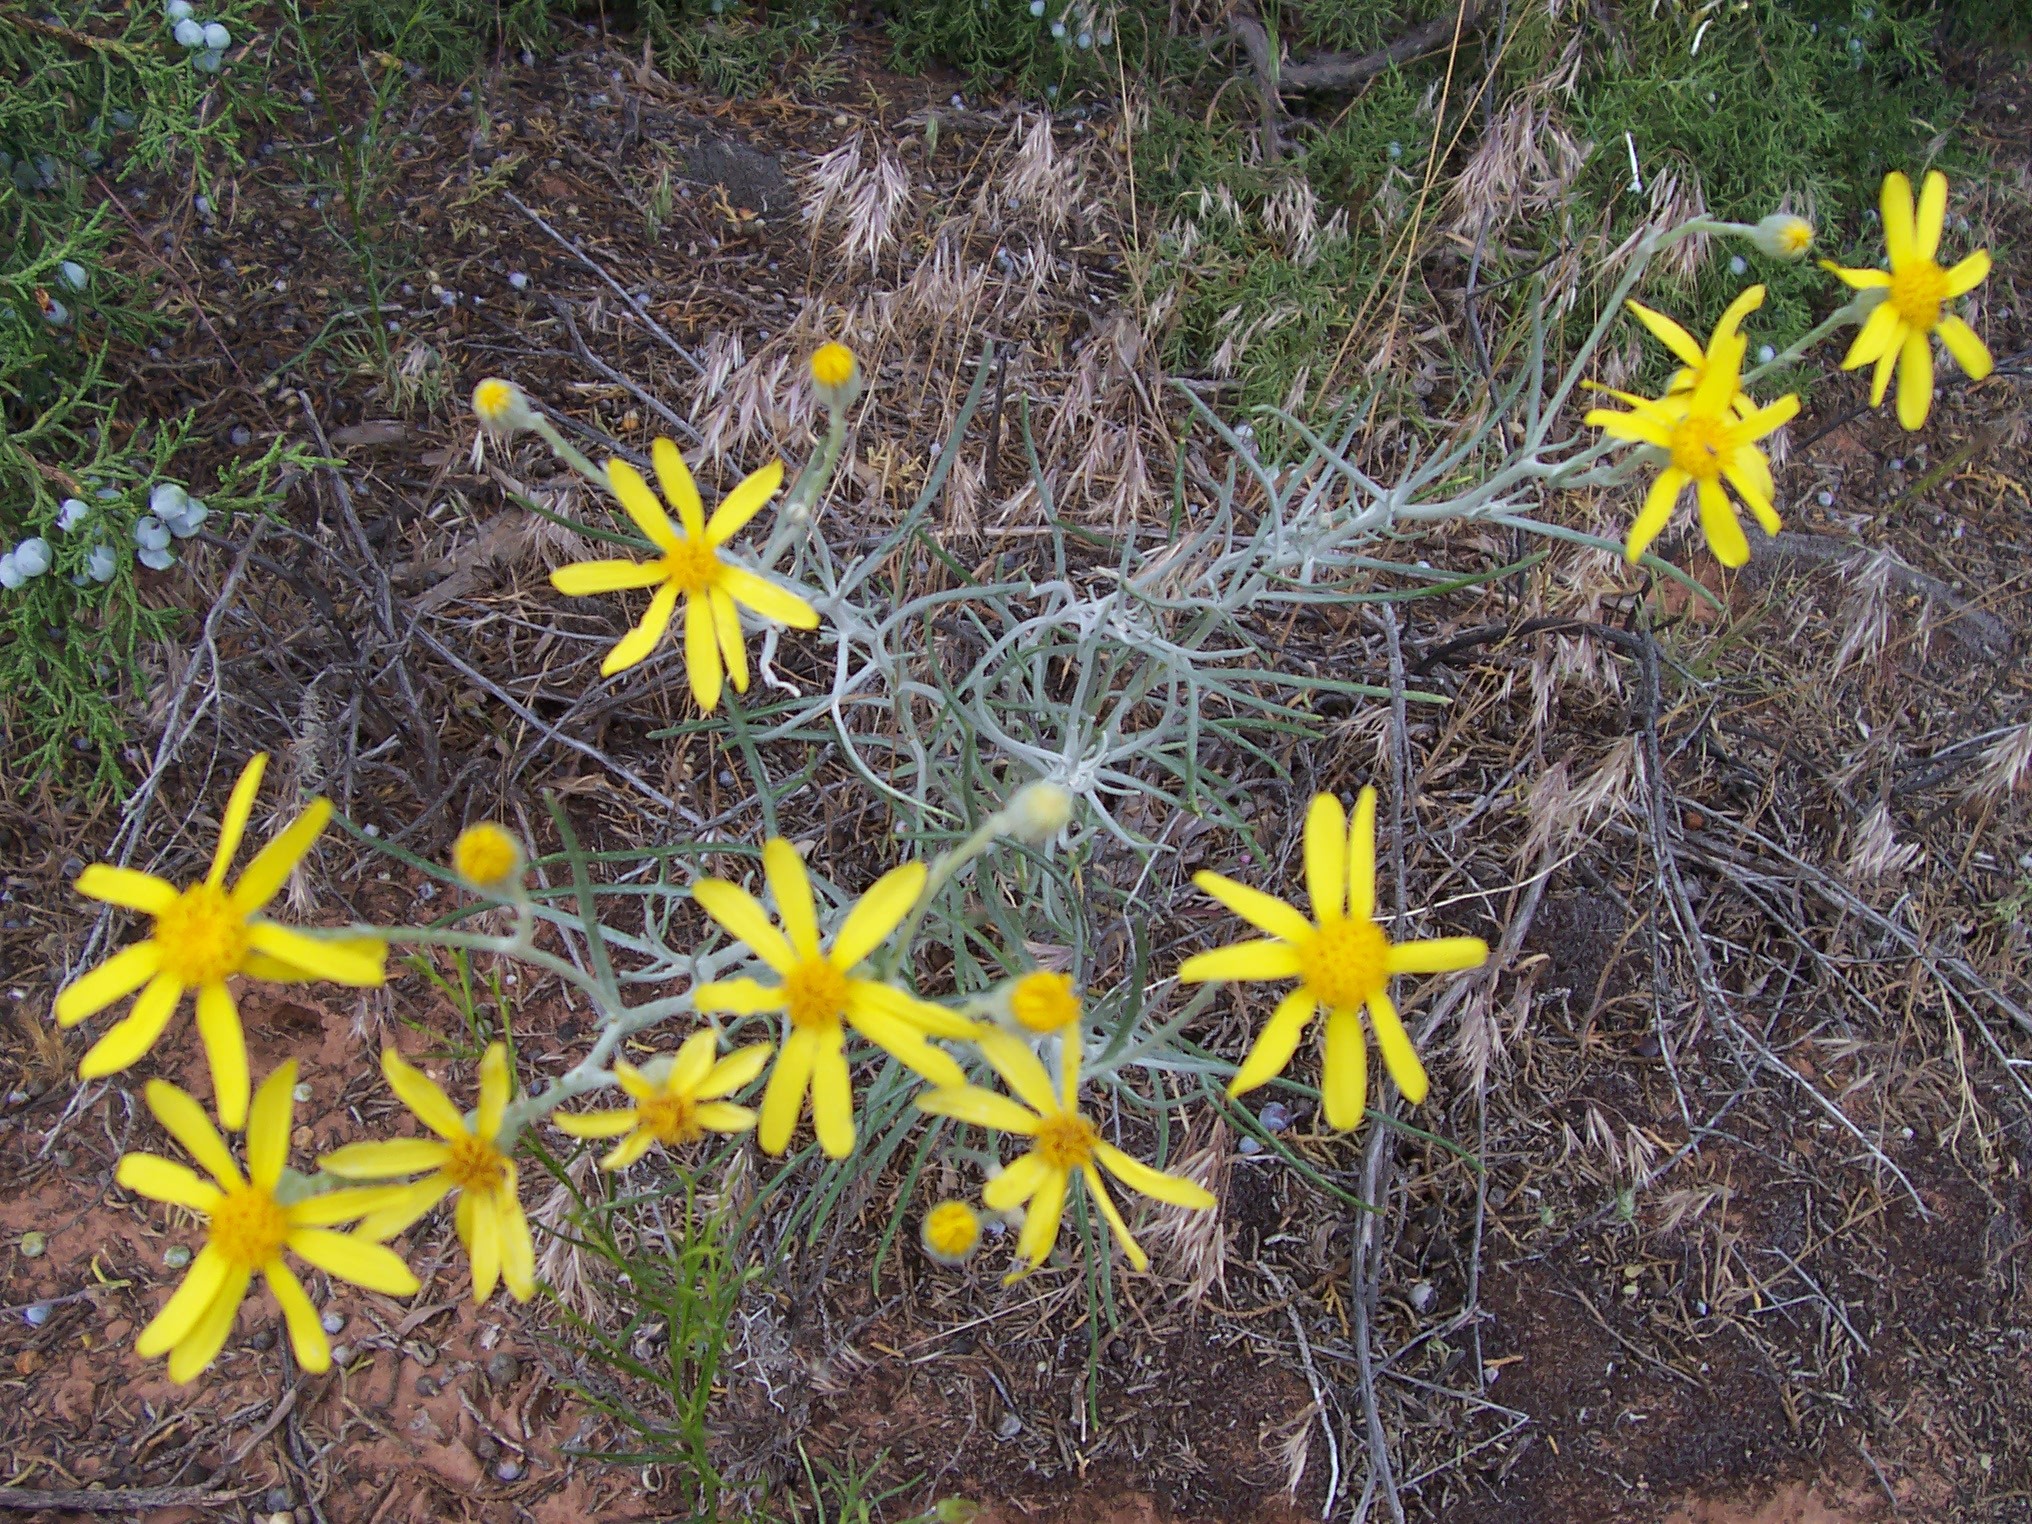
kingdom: Plantae
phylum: Tracheophyta
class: Magnoliopsida
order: Asterales
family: Asteraceae
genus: Senecio
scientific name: Senecio flaccidus
